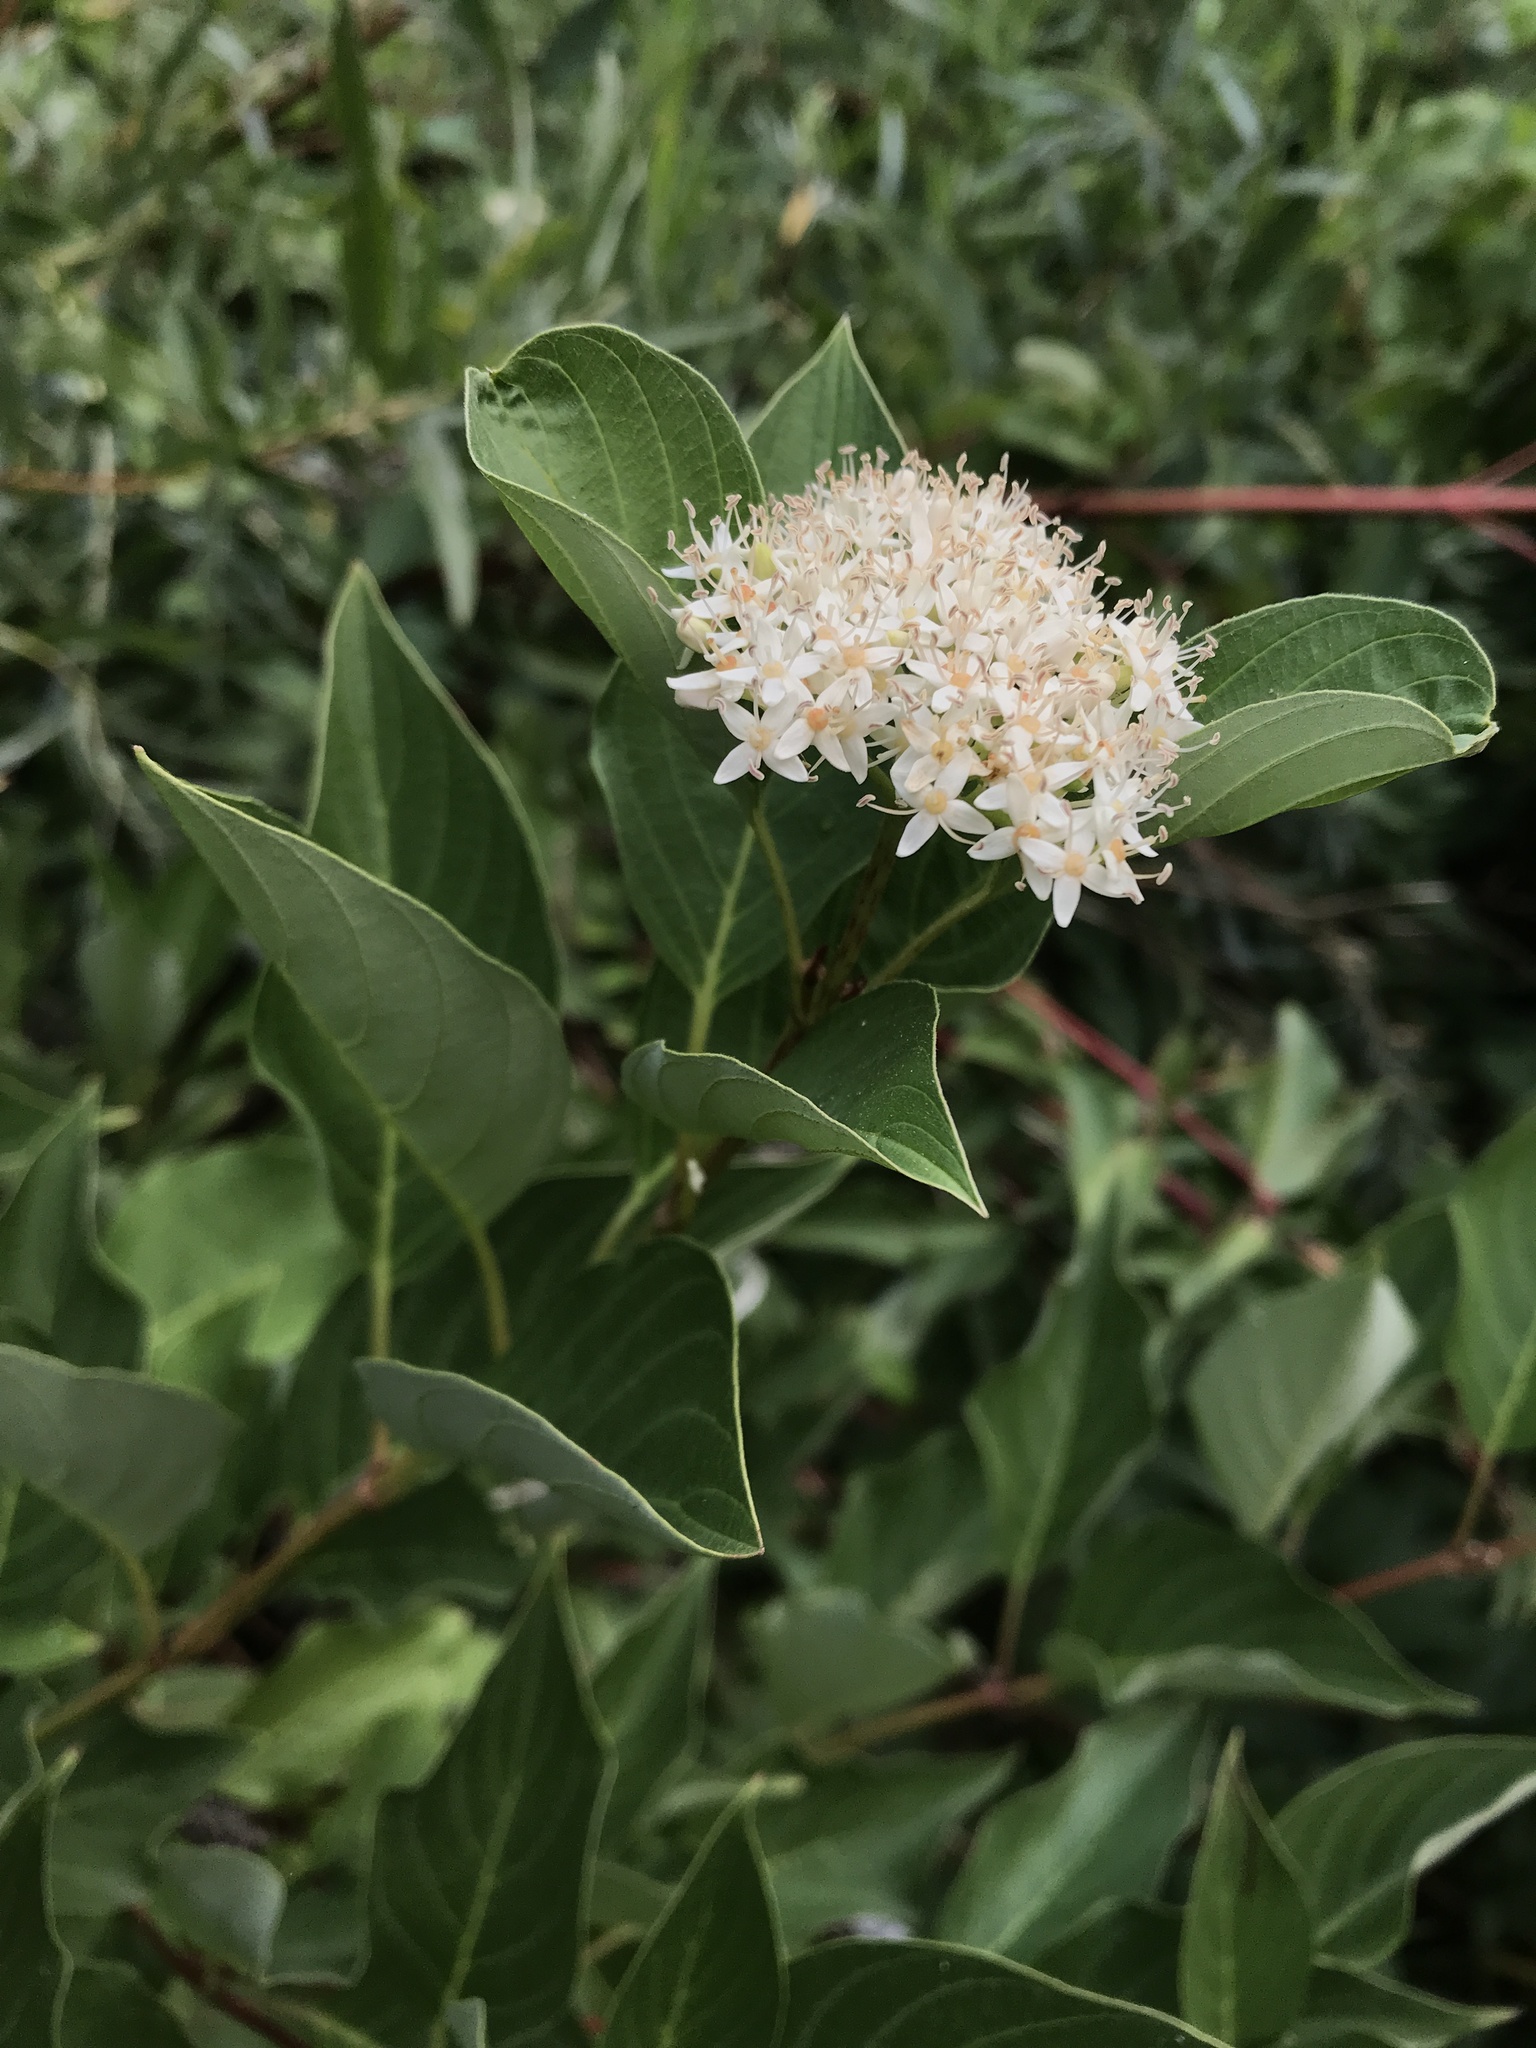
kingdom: Plantae
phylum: Tracheophyta
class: Magnoliopsida
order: Cornales
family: Cornaceae
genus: Cornus
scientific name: Cornus sericea
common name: Red-osier dogwood
